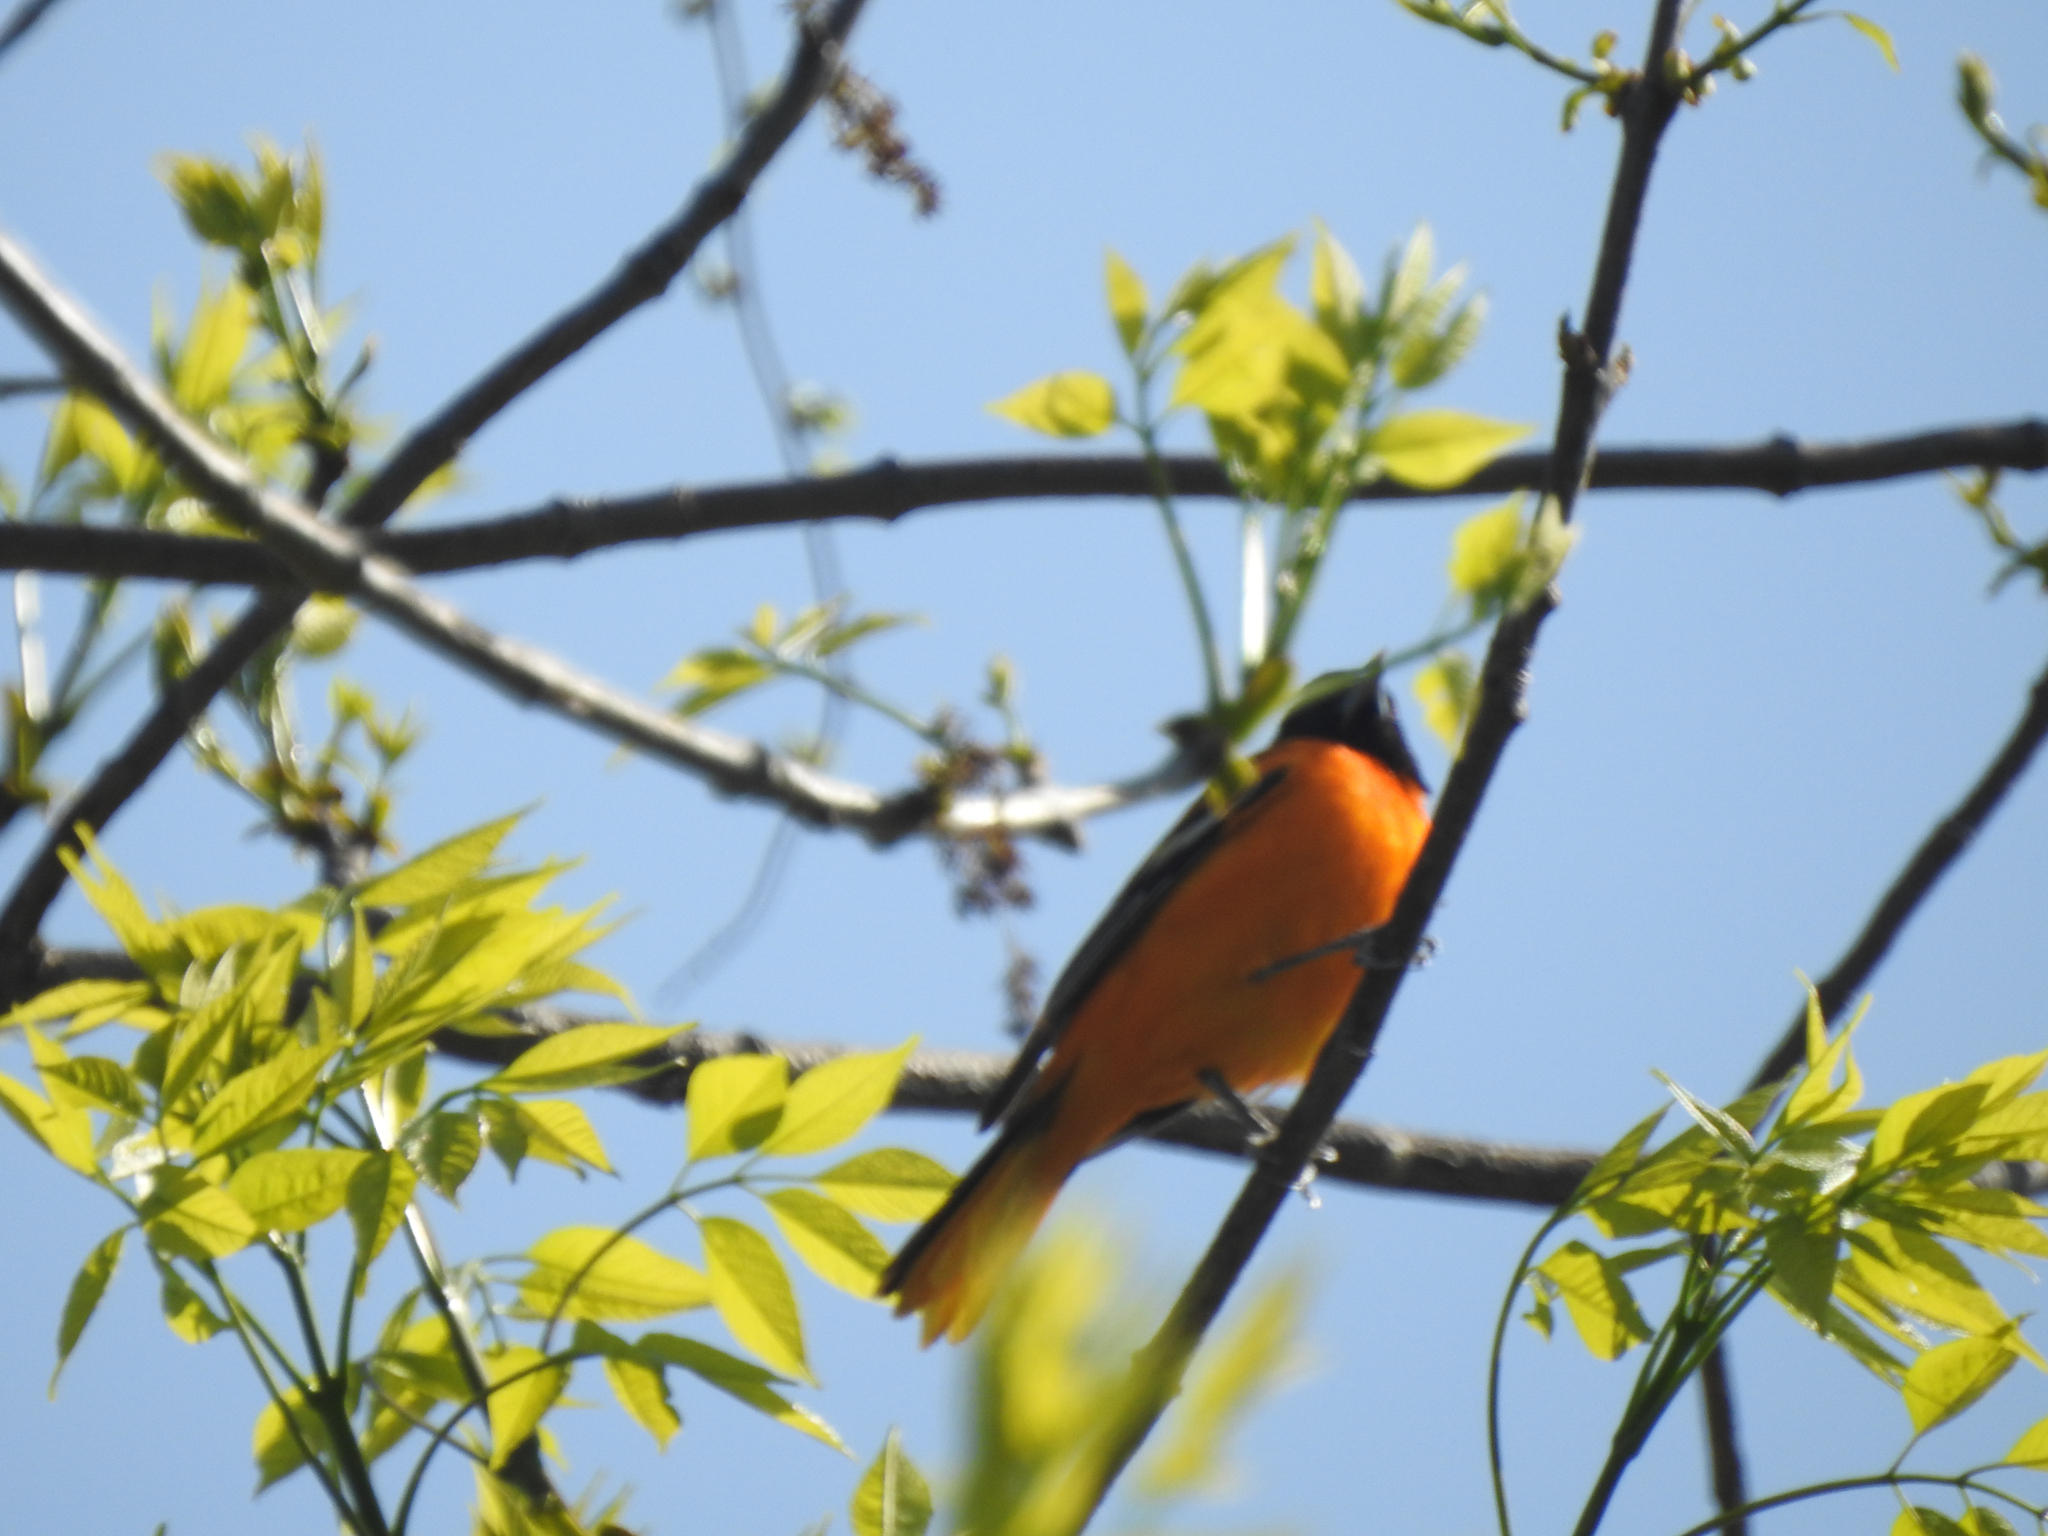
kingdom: Animalia
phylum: Chordata
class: Aves
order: Passeriformes
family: Icteridae
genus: Icterus
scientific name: Icterus galbula
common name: Baltimore oriole
